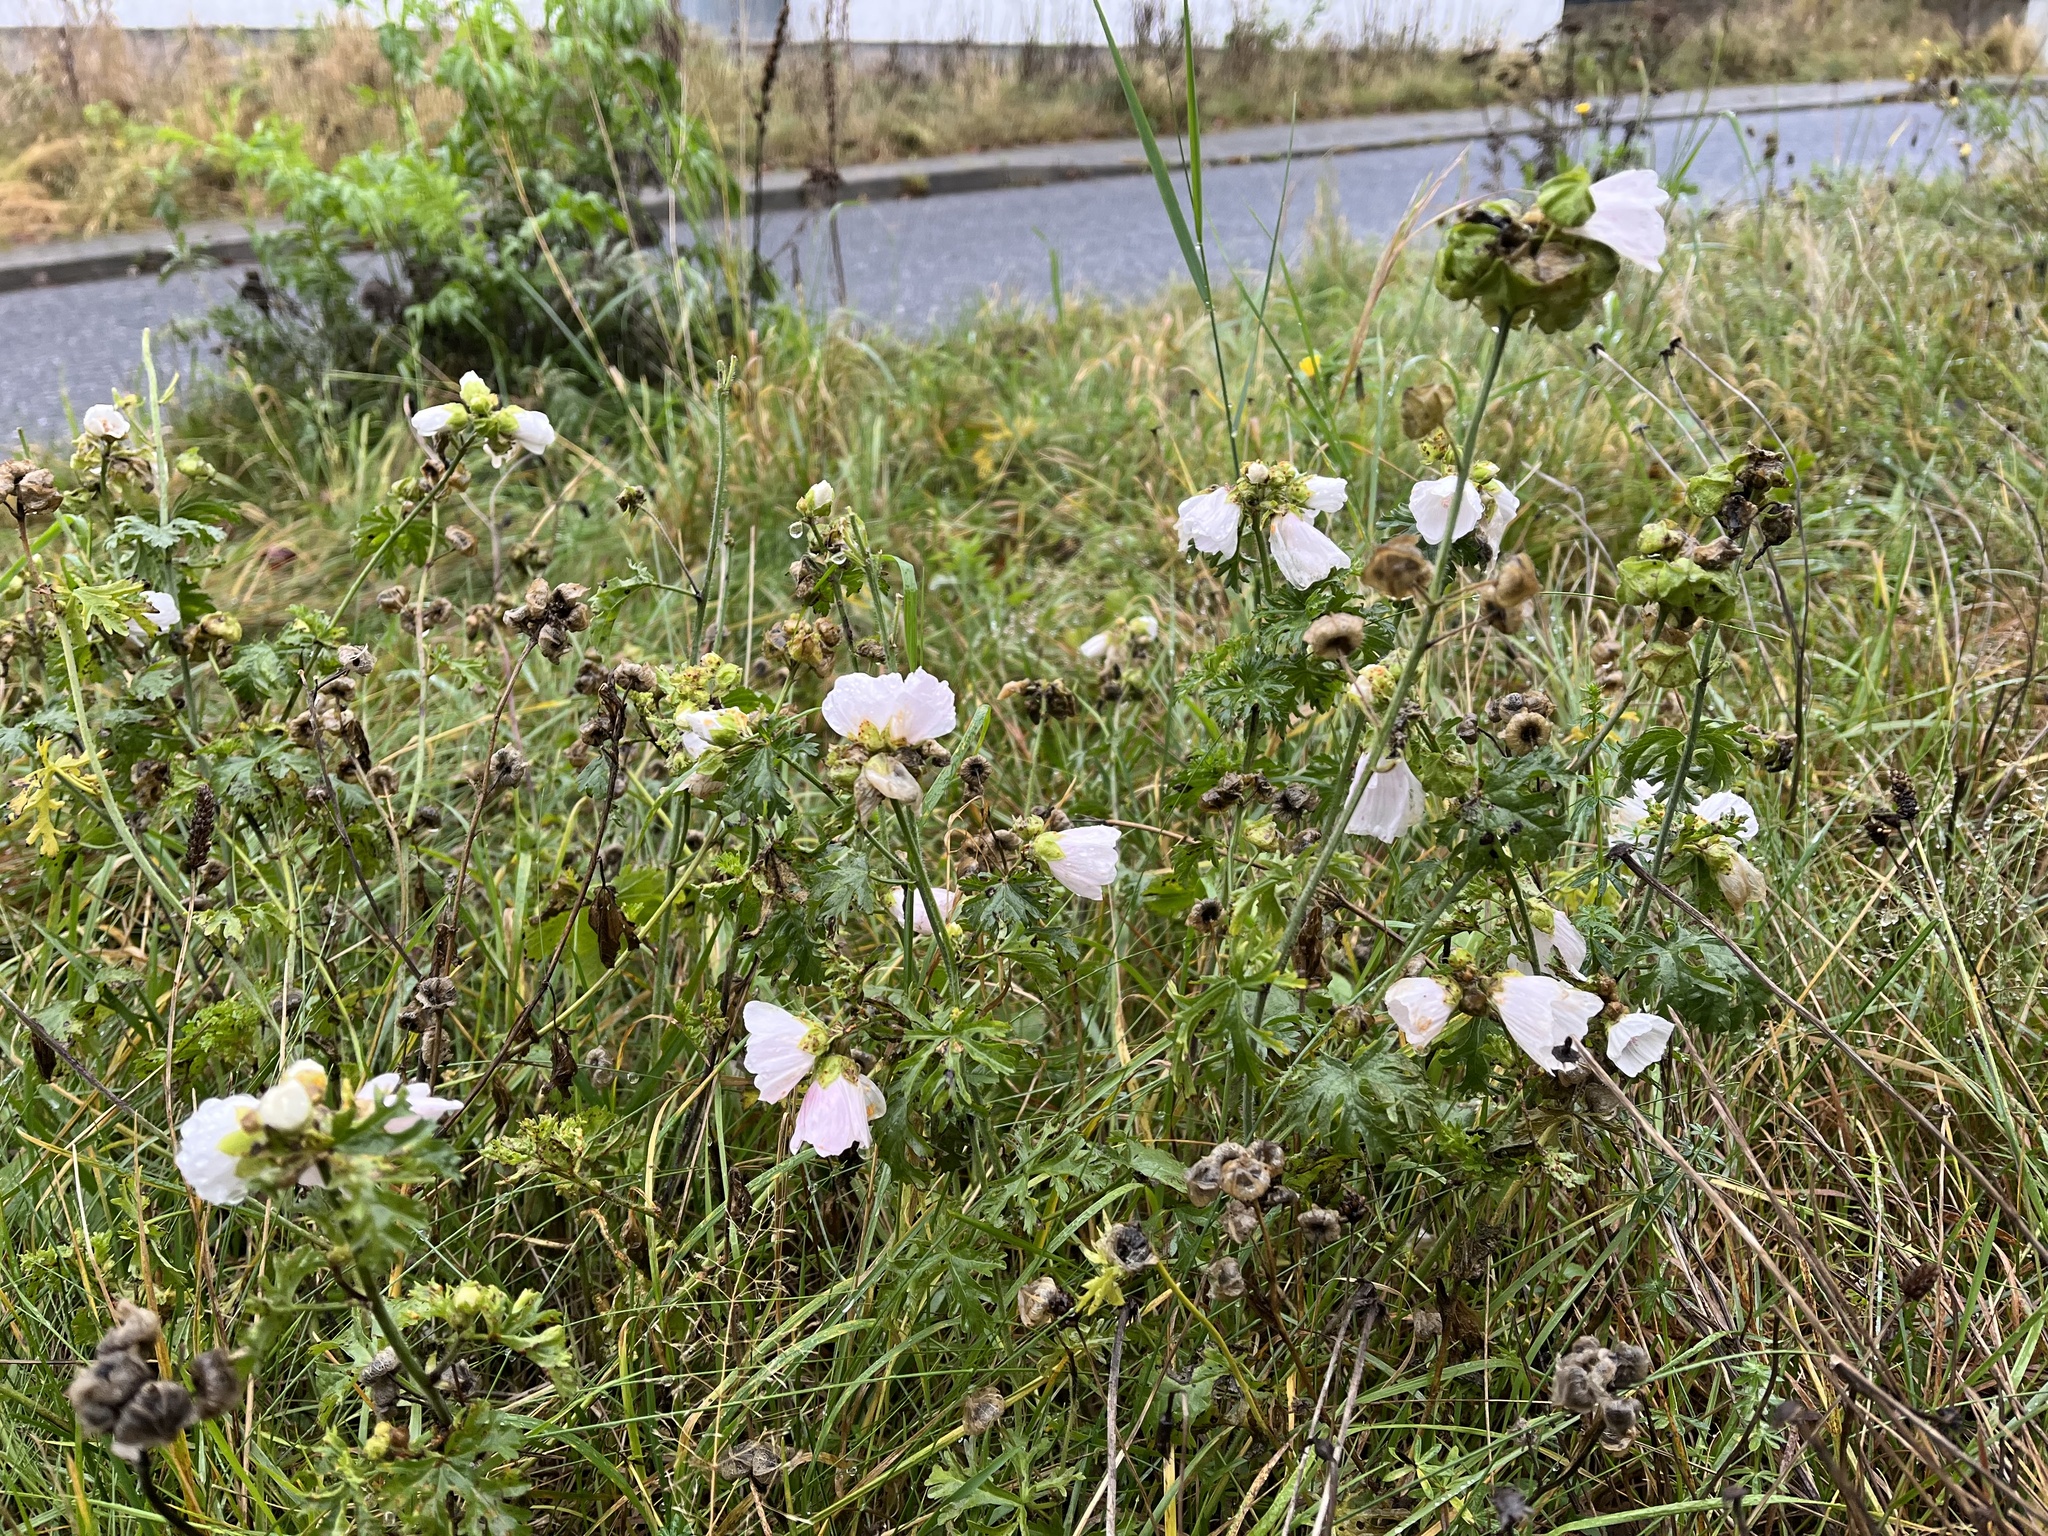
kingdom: Plantae
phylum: Tracheophyta
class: Magnoliopsida
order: Malvales
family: Malvaceae
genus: Malva
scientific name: Malva moschata
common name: Musk mallow
